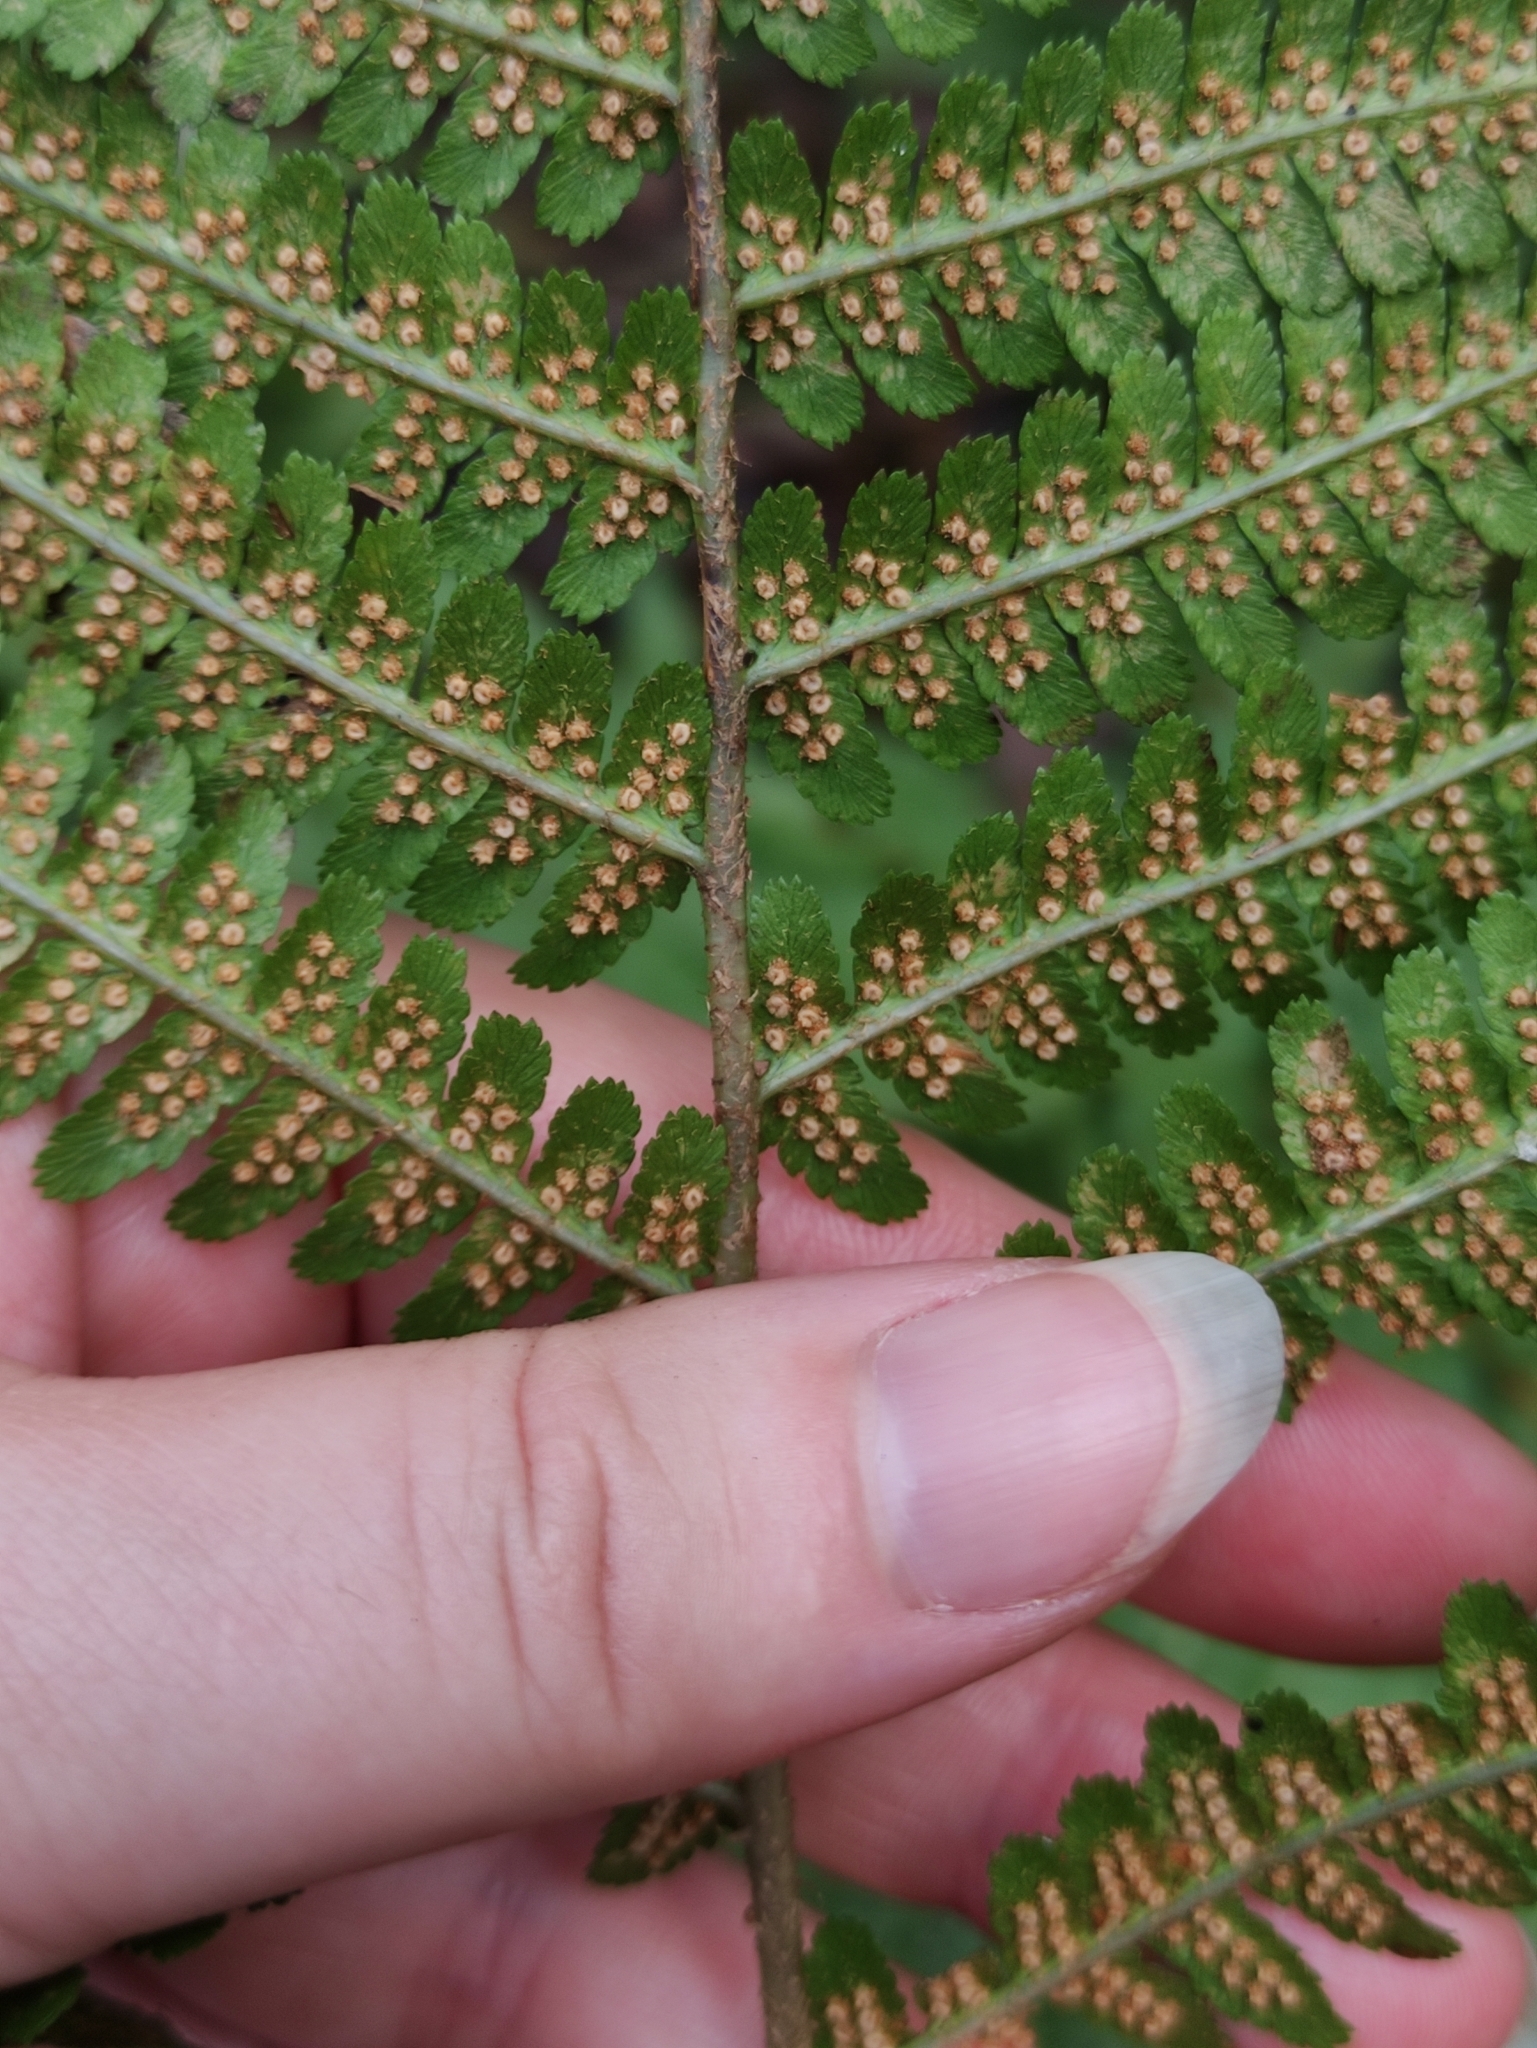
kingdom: Plantae
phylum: Tracheophyta
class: Polypodiopsida
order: Polypodiales
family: Dryopteridaceae
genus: Dryopteris
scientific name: Dryopteris filix-mas
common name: Male fern
